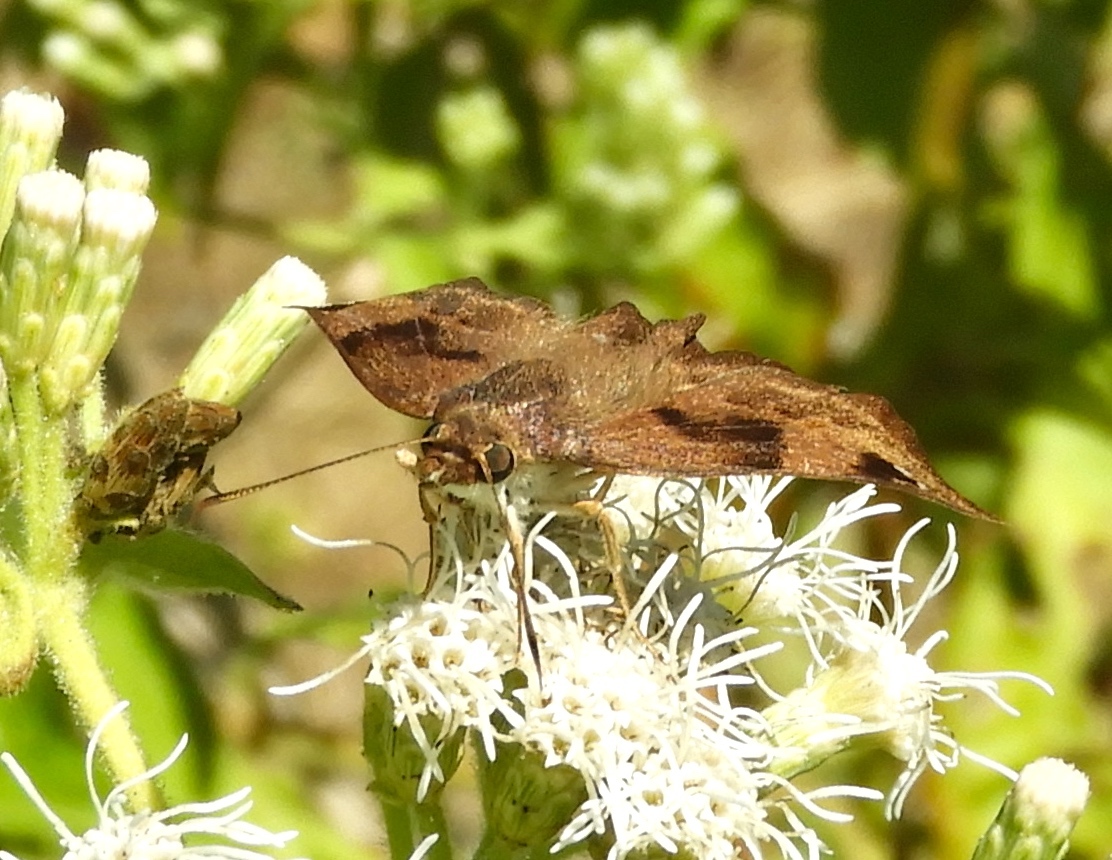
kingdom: Animalia
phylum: Arthropoda
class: Insecta
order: Lepidoptera
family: Hesperiidae
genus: Arteurotia
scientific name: Arteurotia tractipennis
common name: Starred skipper
